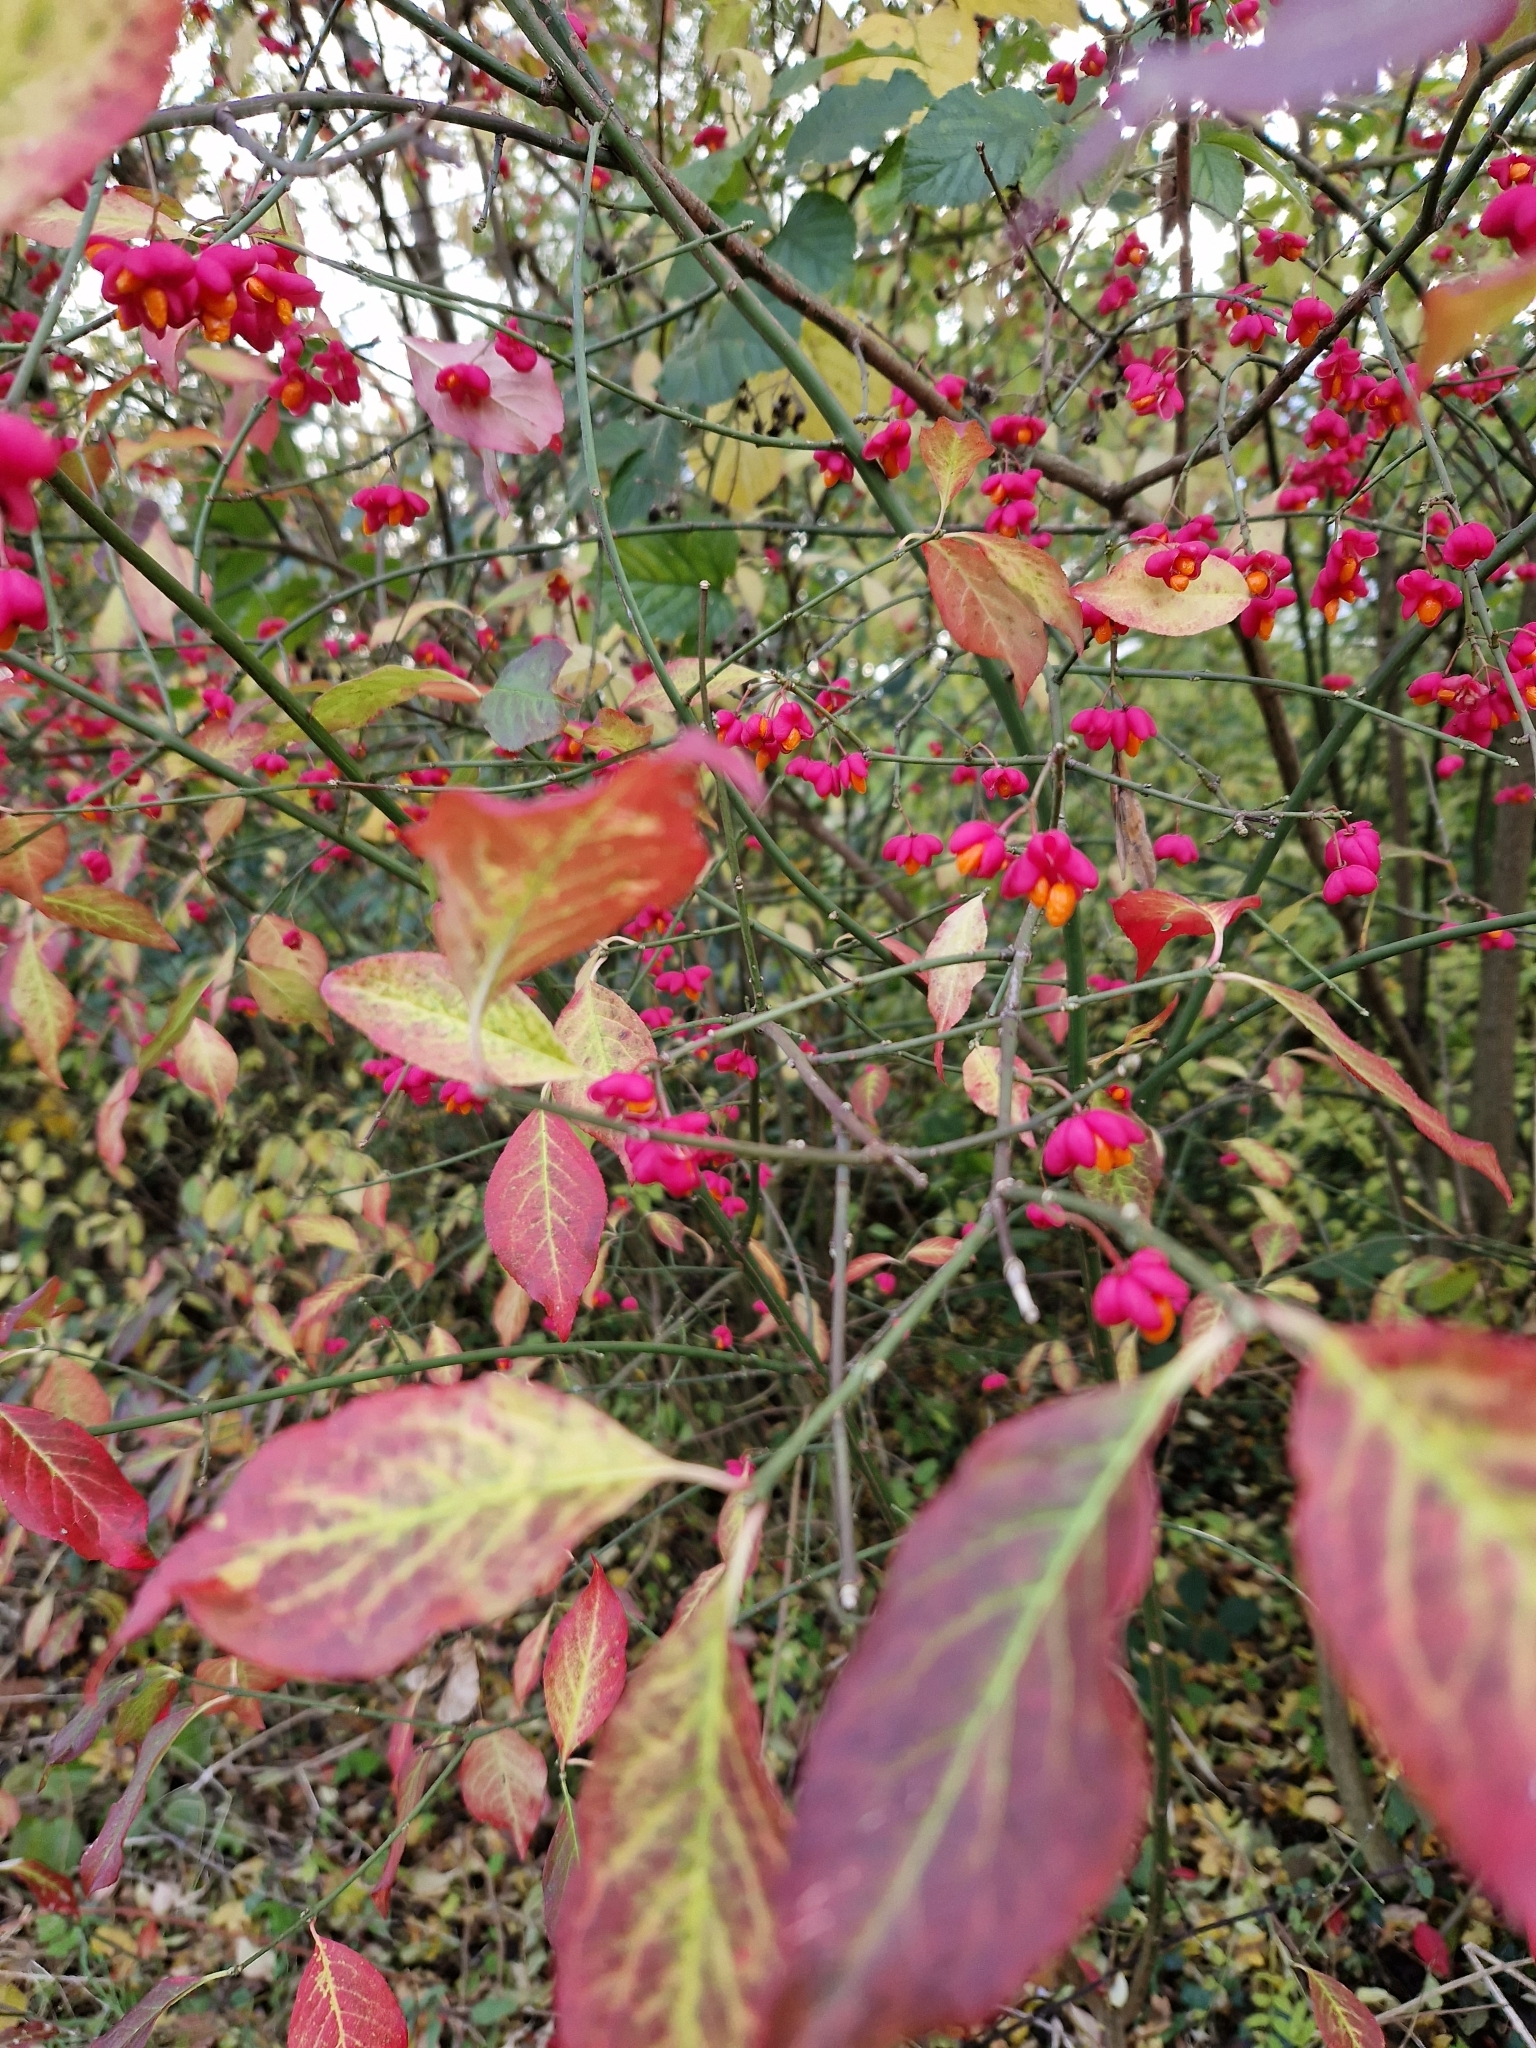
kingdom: Plantae
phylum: Tracheophyta
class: Magnoliopsida
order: Celastrales
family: Celastraceae
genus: Euonymus
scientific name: Euonymus europaeus
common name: Spindle
